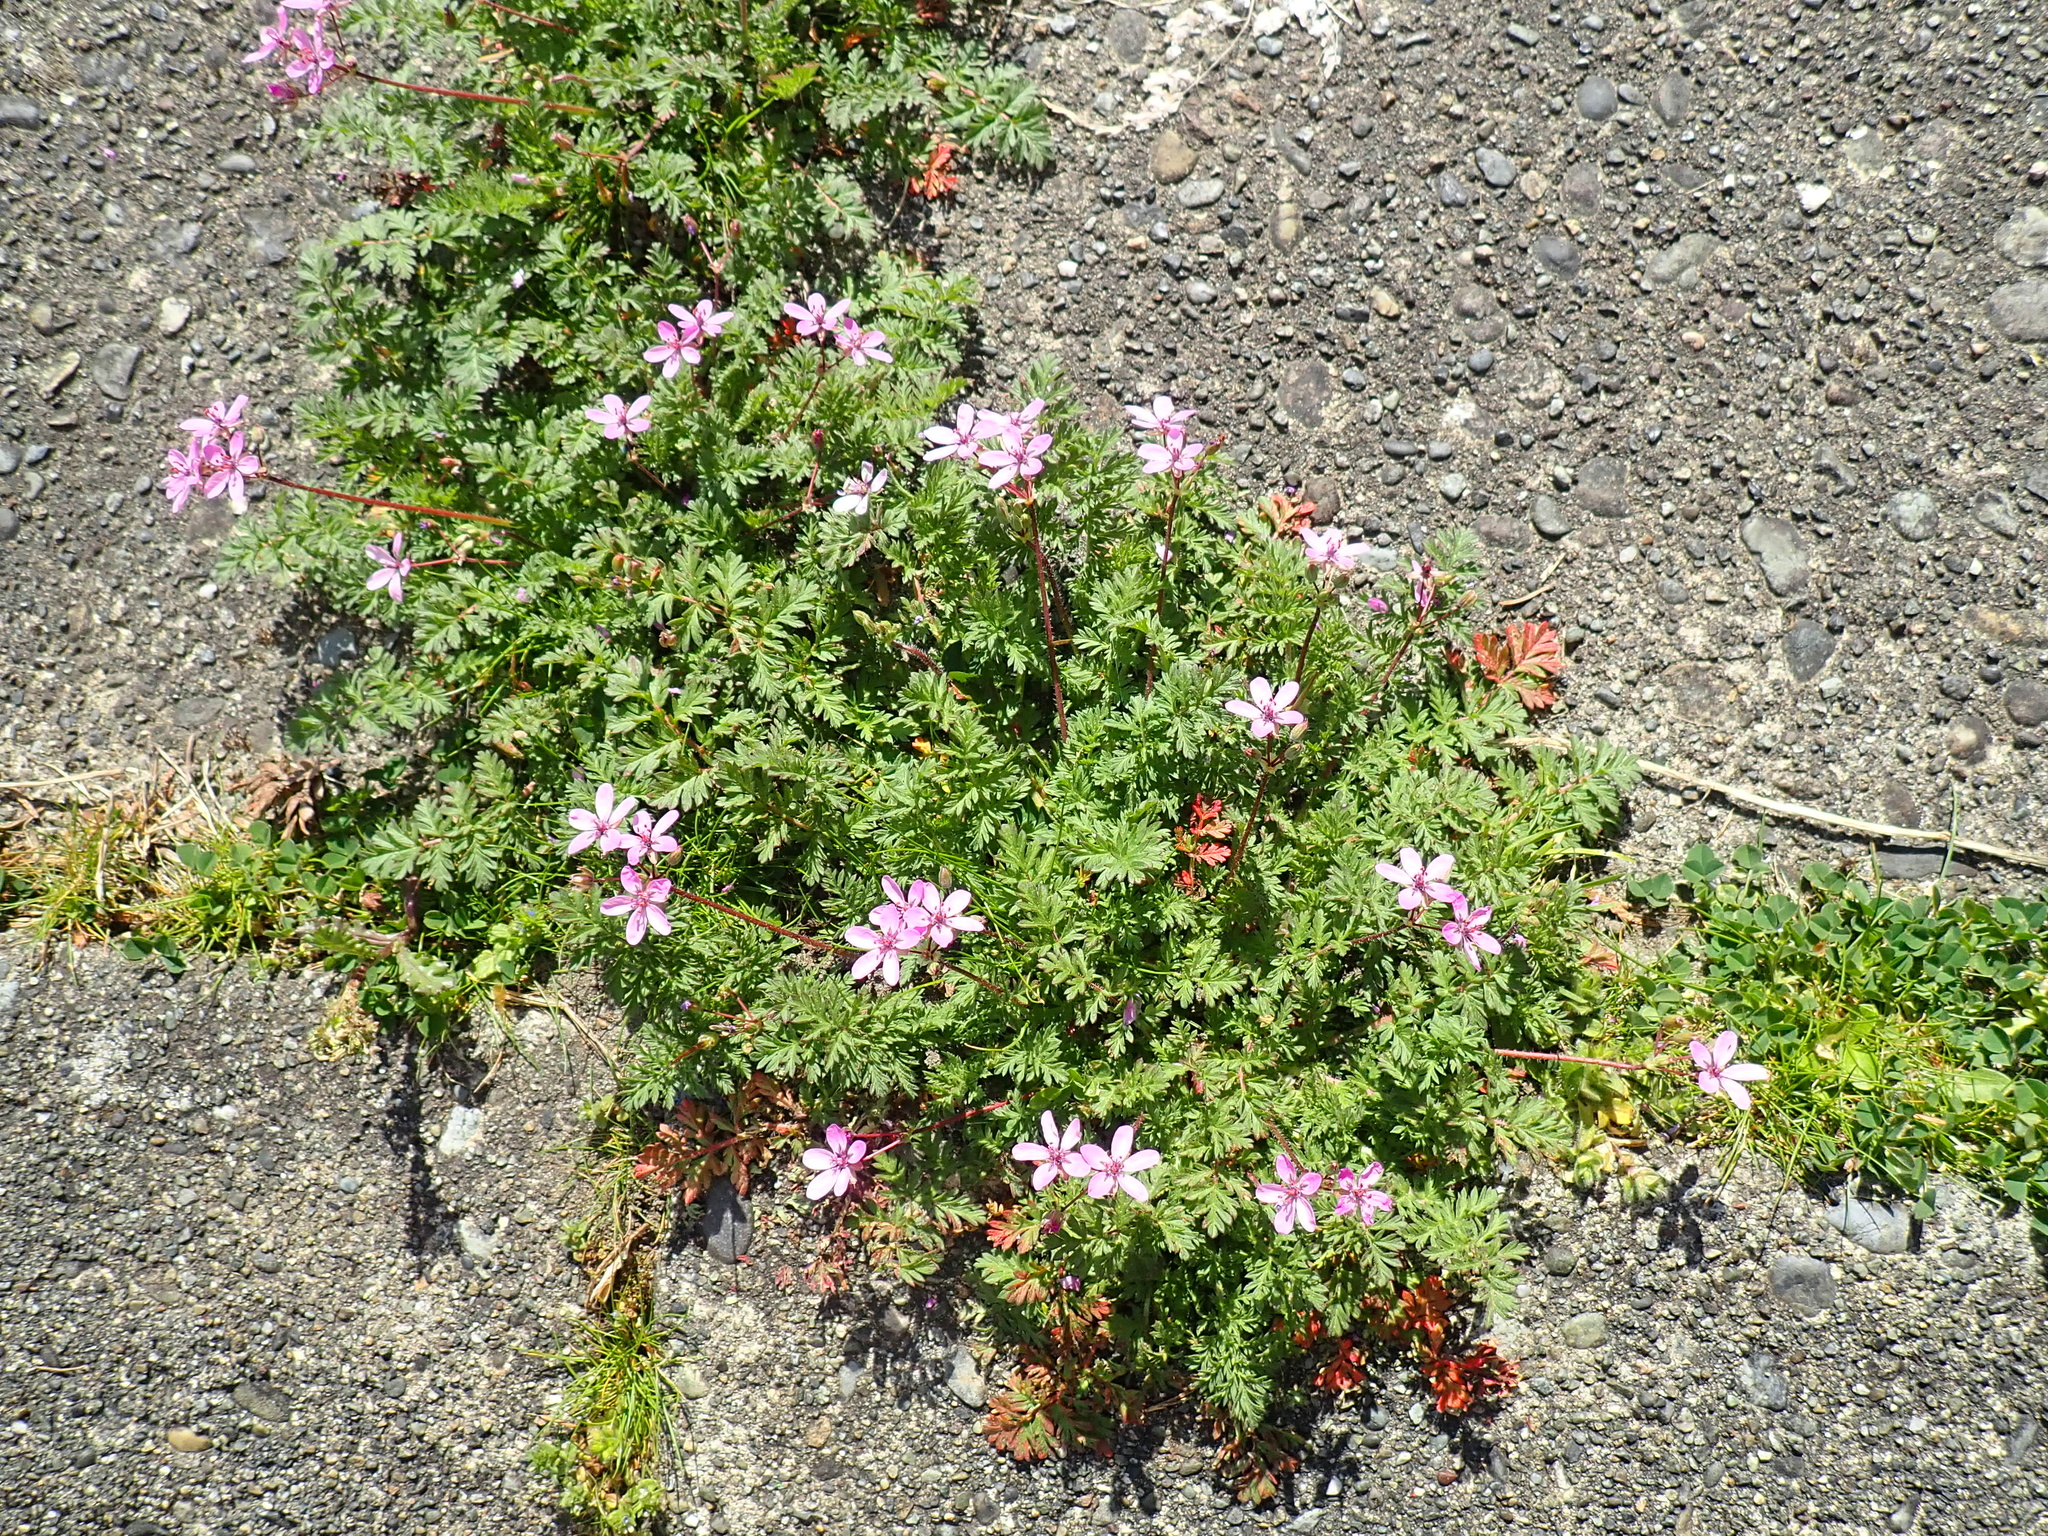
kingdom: Plantae
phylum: Tracheophyta
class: Magnoliopsida
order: Geraniales
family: Geraniaceae
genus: Erodium
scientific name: Erodium cicutarium
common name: Common stork's-bill
